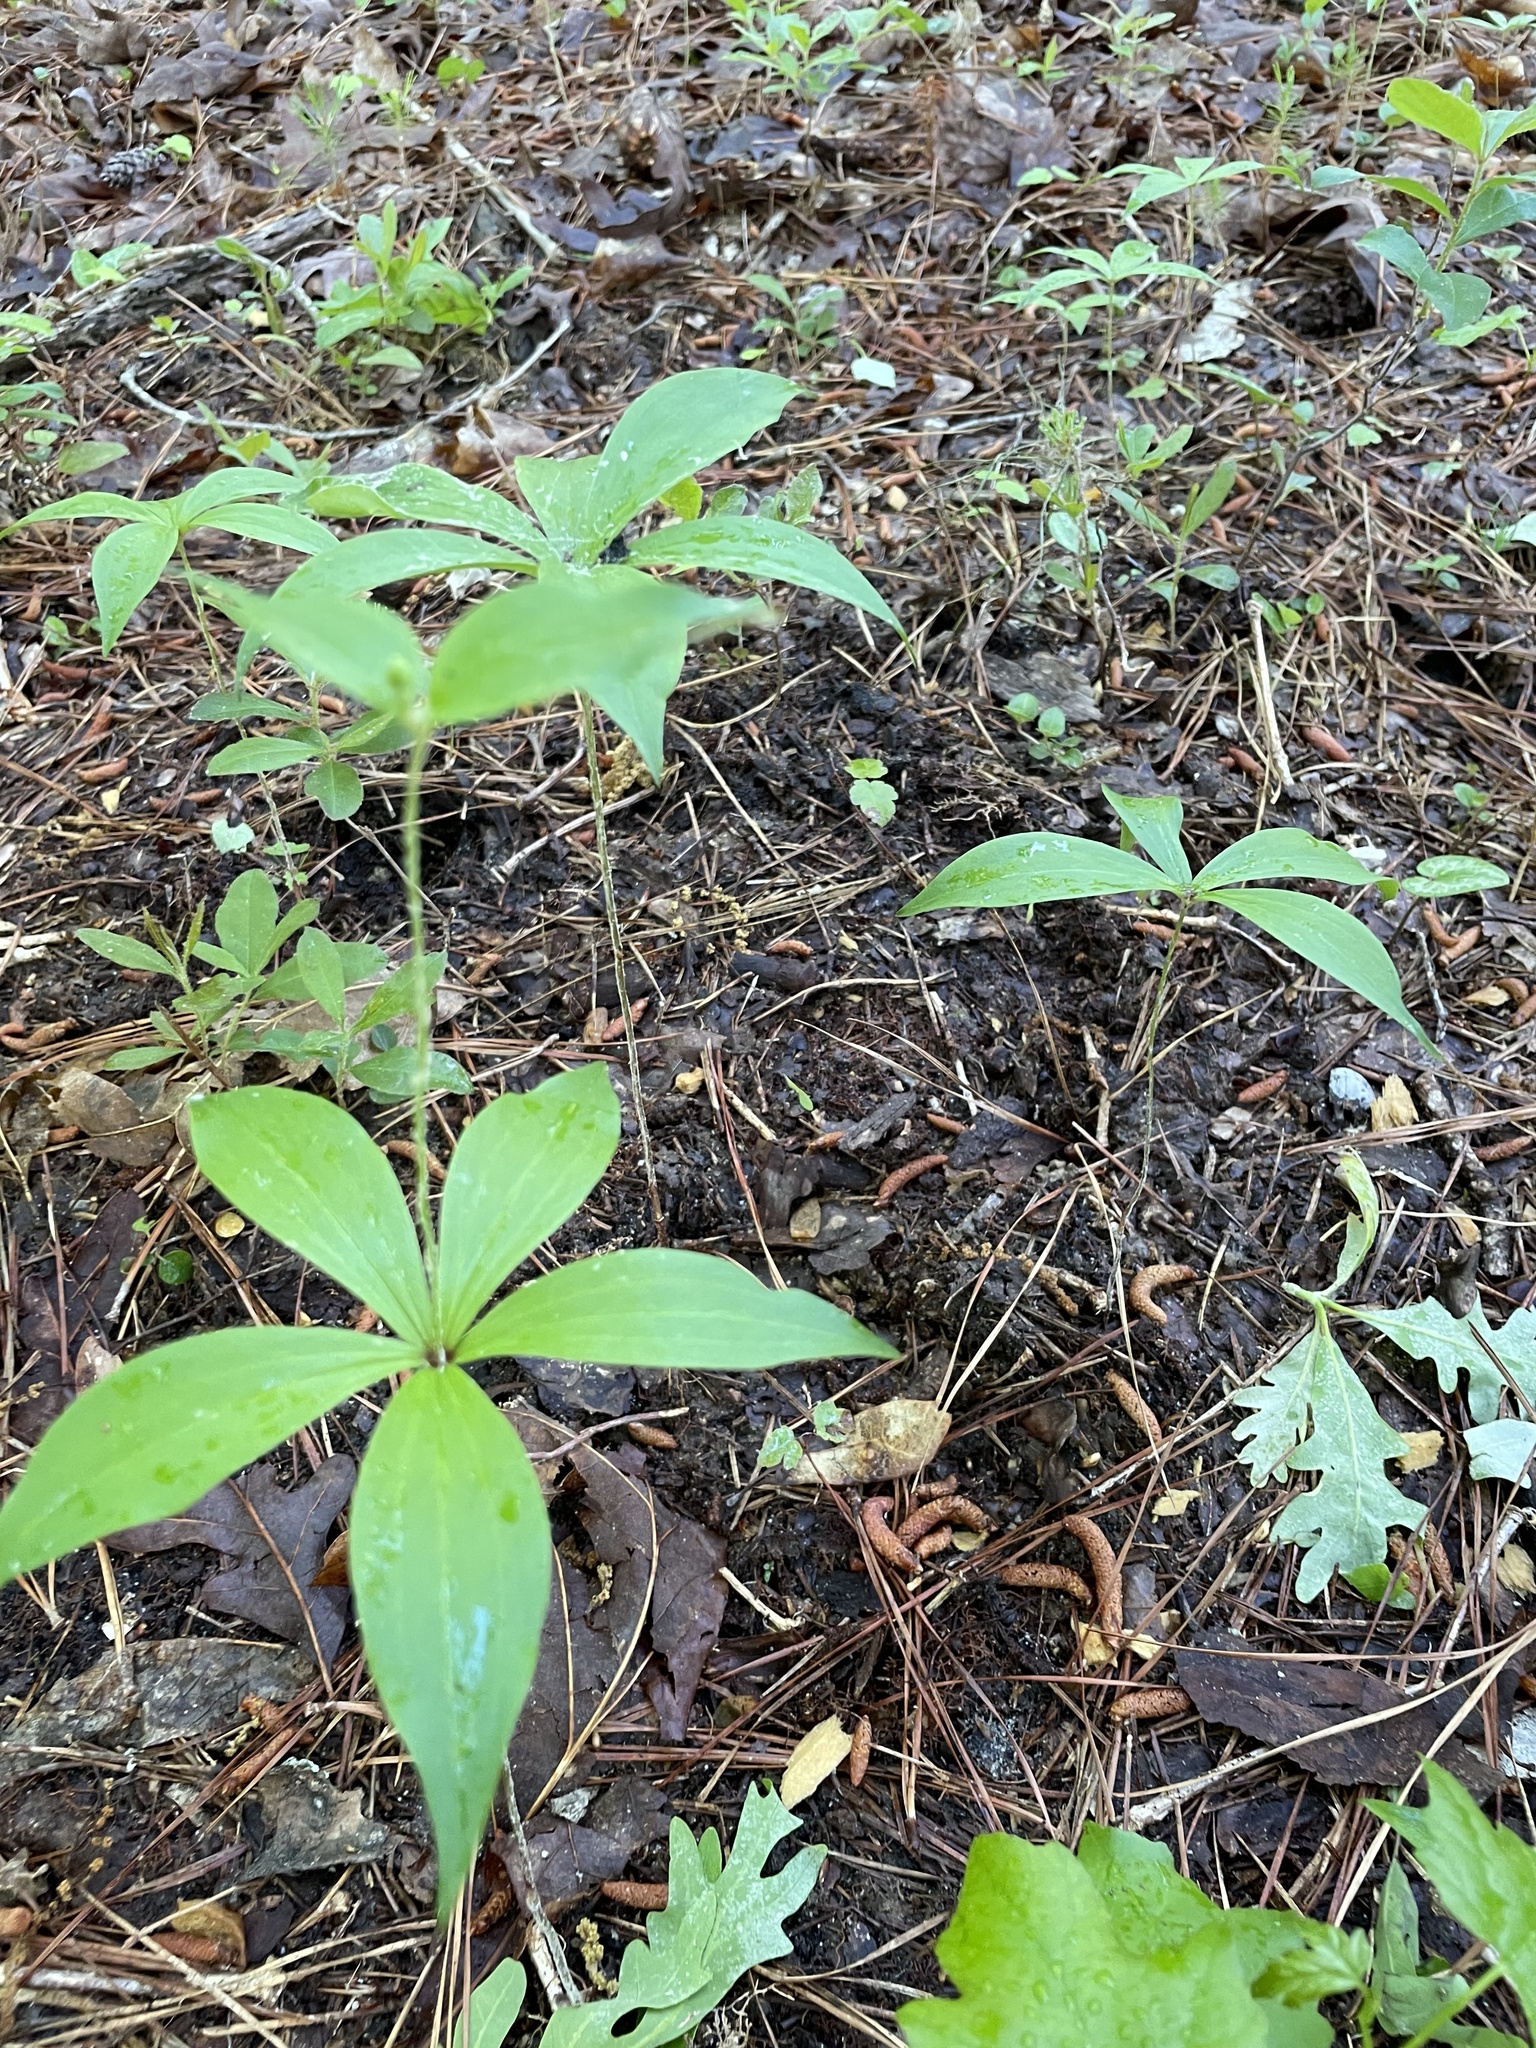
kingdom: Plantae
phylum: Tracheophyta
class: Liliopsida
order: Liliales
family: Liliaceae
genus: Medeola
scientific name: Medeola virginiana
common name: Indian cucumber-root
